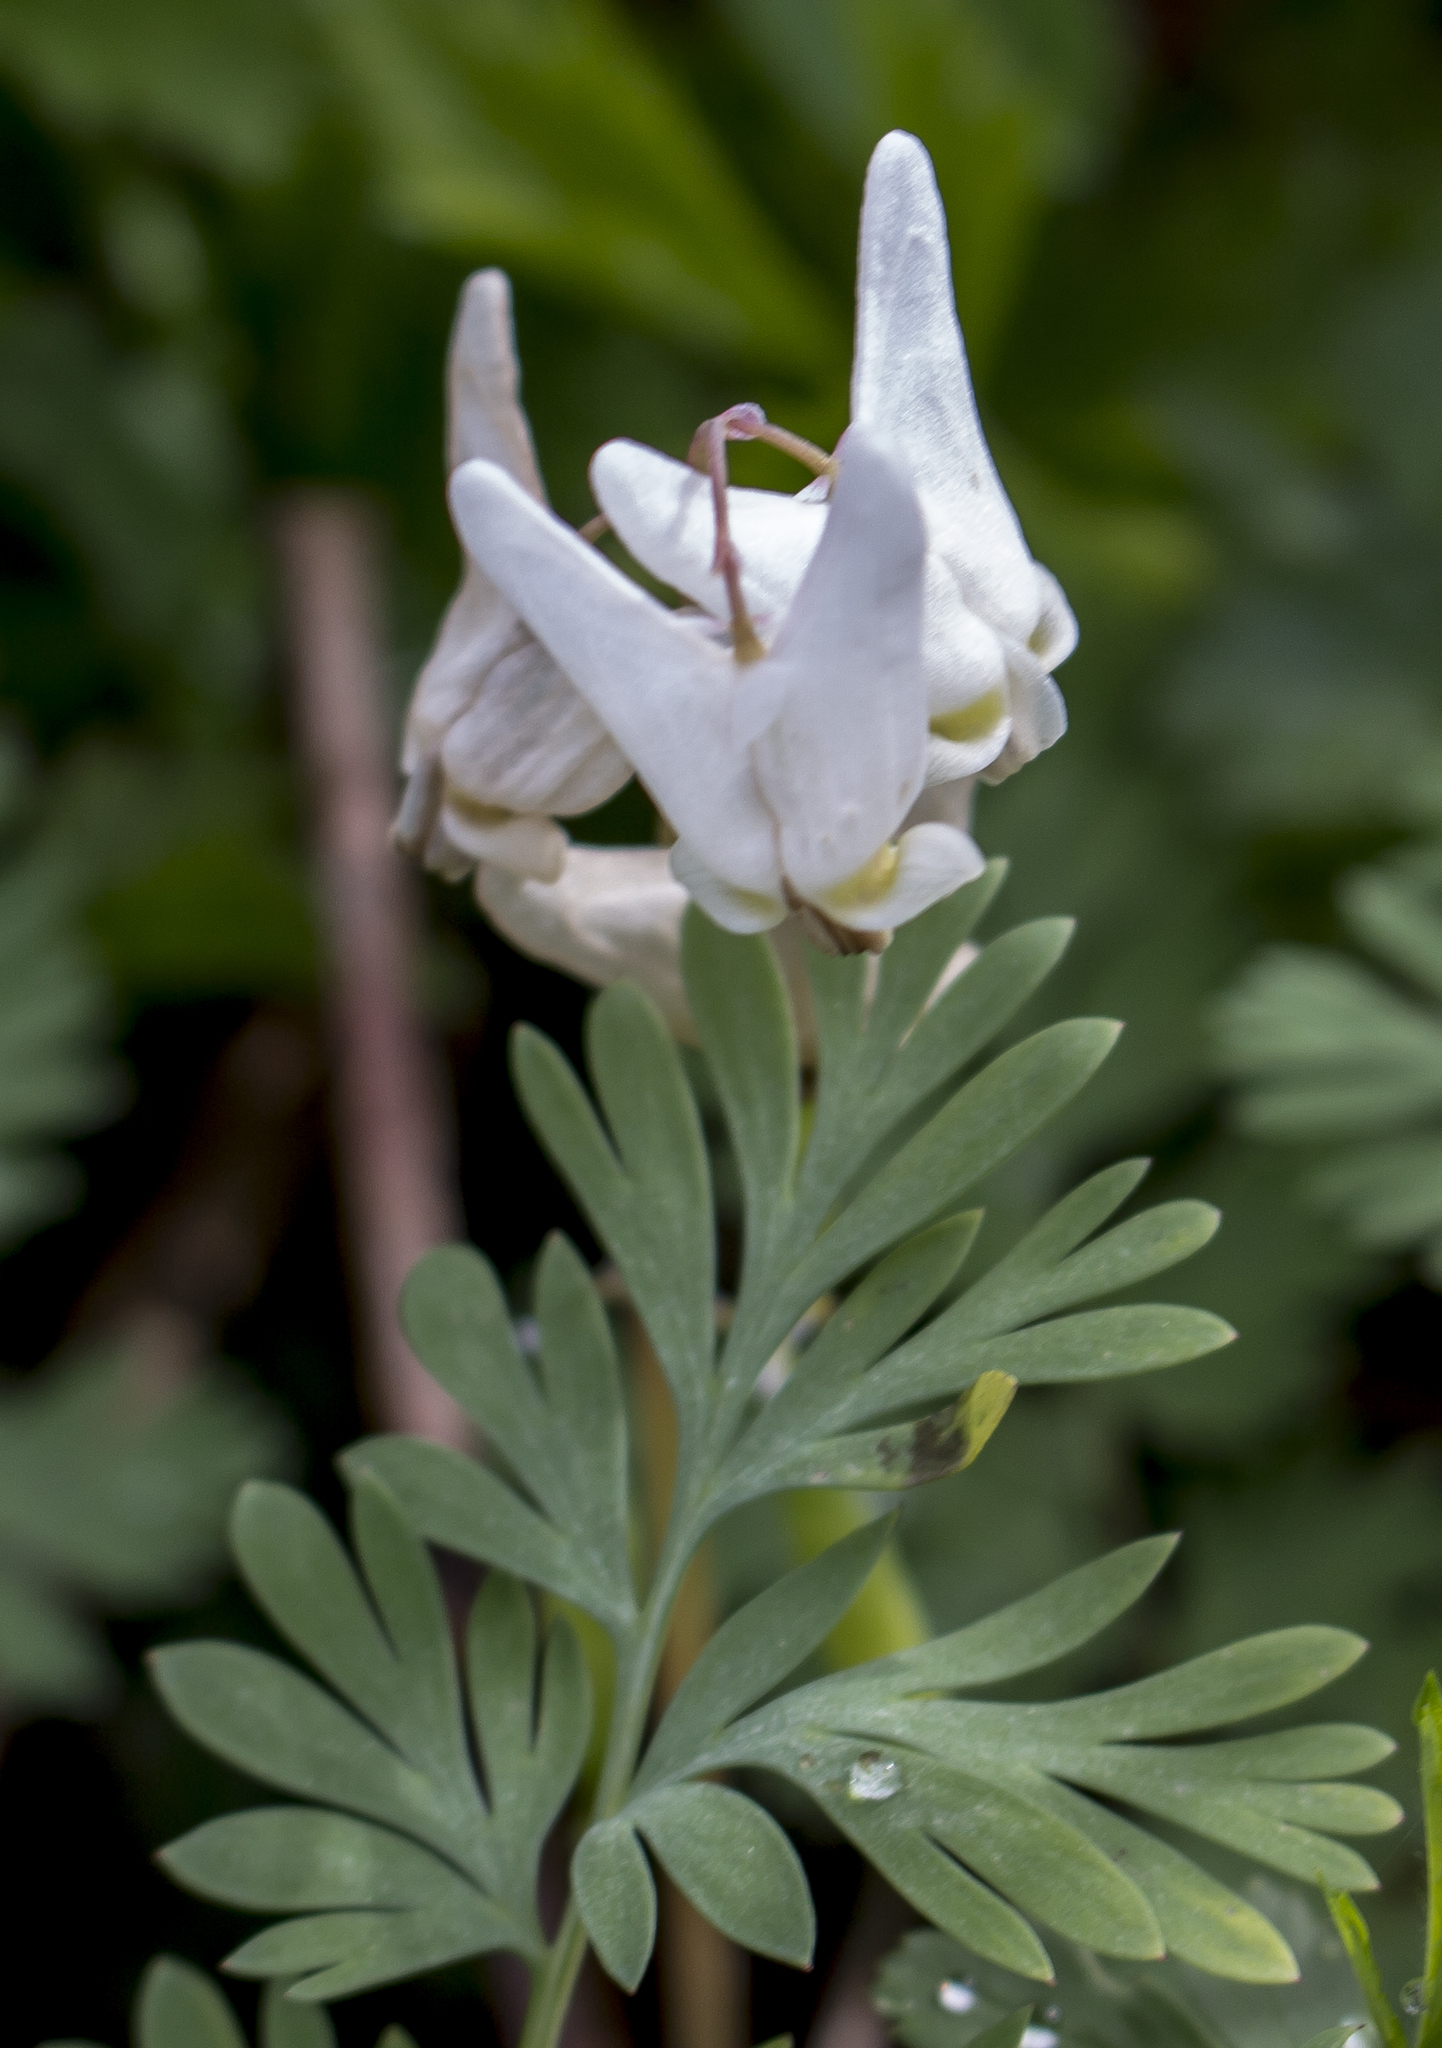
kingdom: Plantae
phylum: Tracheophyta
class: Magnoliopsida
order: Ranunculales
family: Papaveraceae
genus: Dicentra
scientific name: Dicentra cucullaria
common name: Dutchman's breeches
